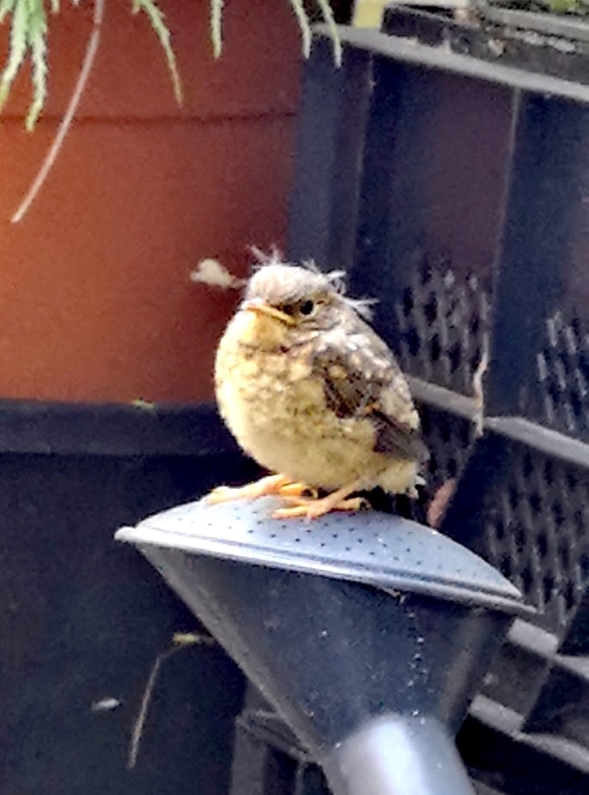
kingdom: Animalia
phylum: Chordata
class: Aves
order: Passeriformes
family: Muscicapidae
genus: Erithacus
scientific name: Erithacus rubecula
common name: European robin
